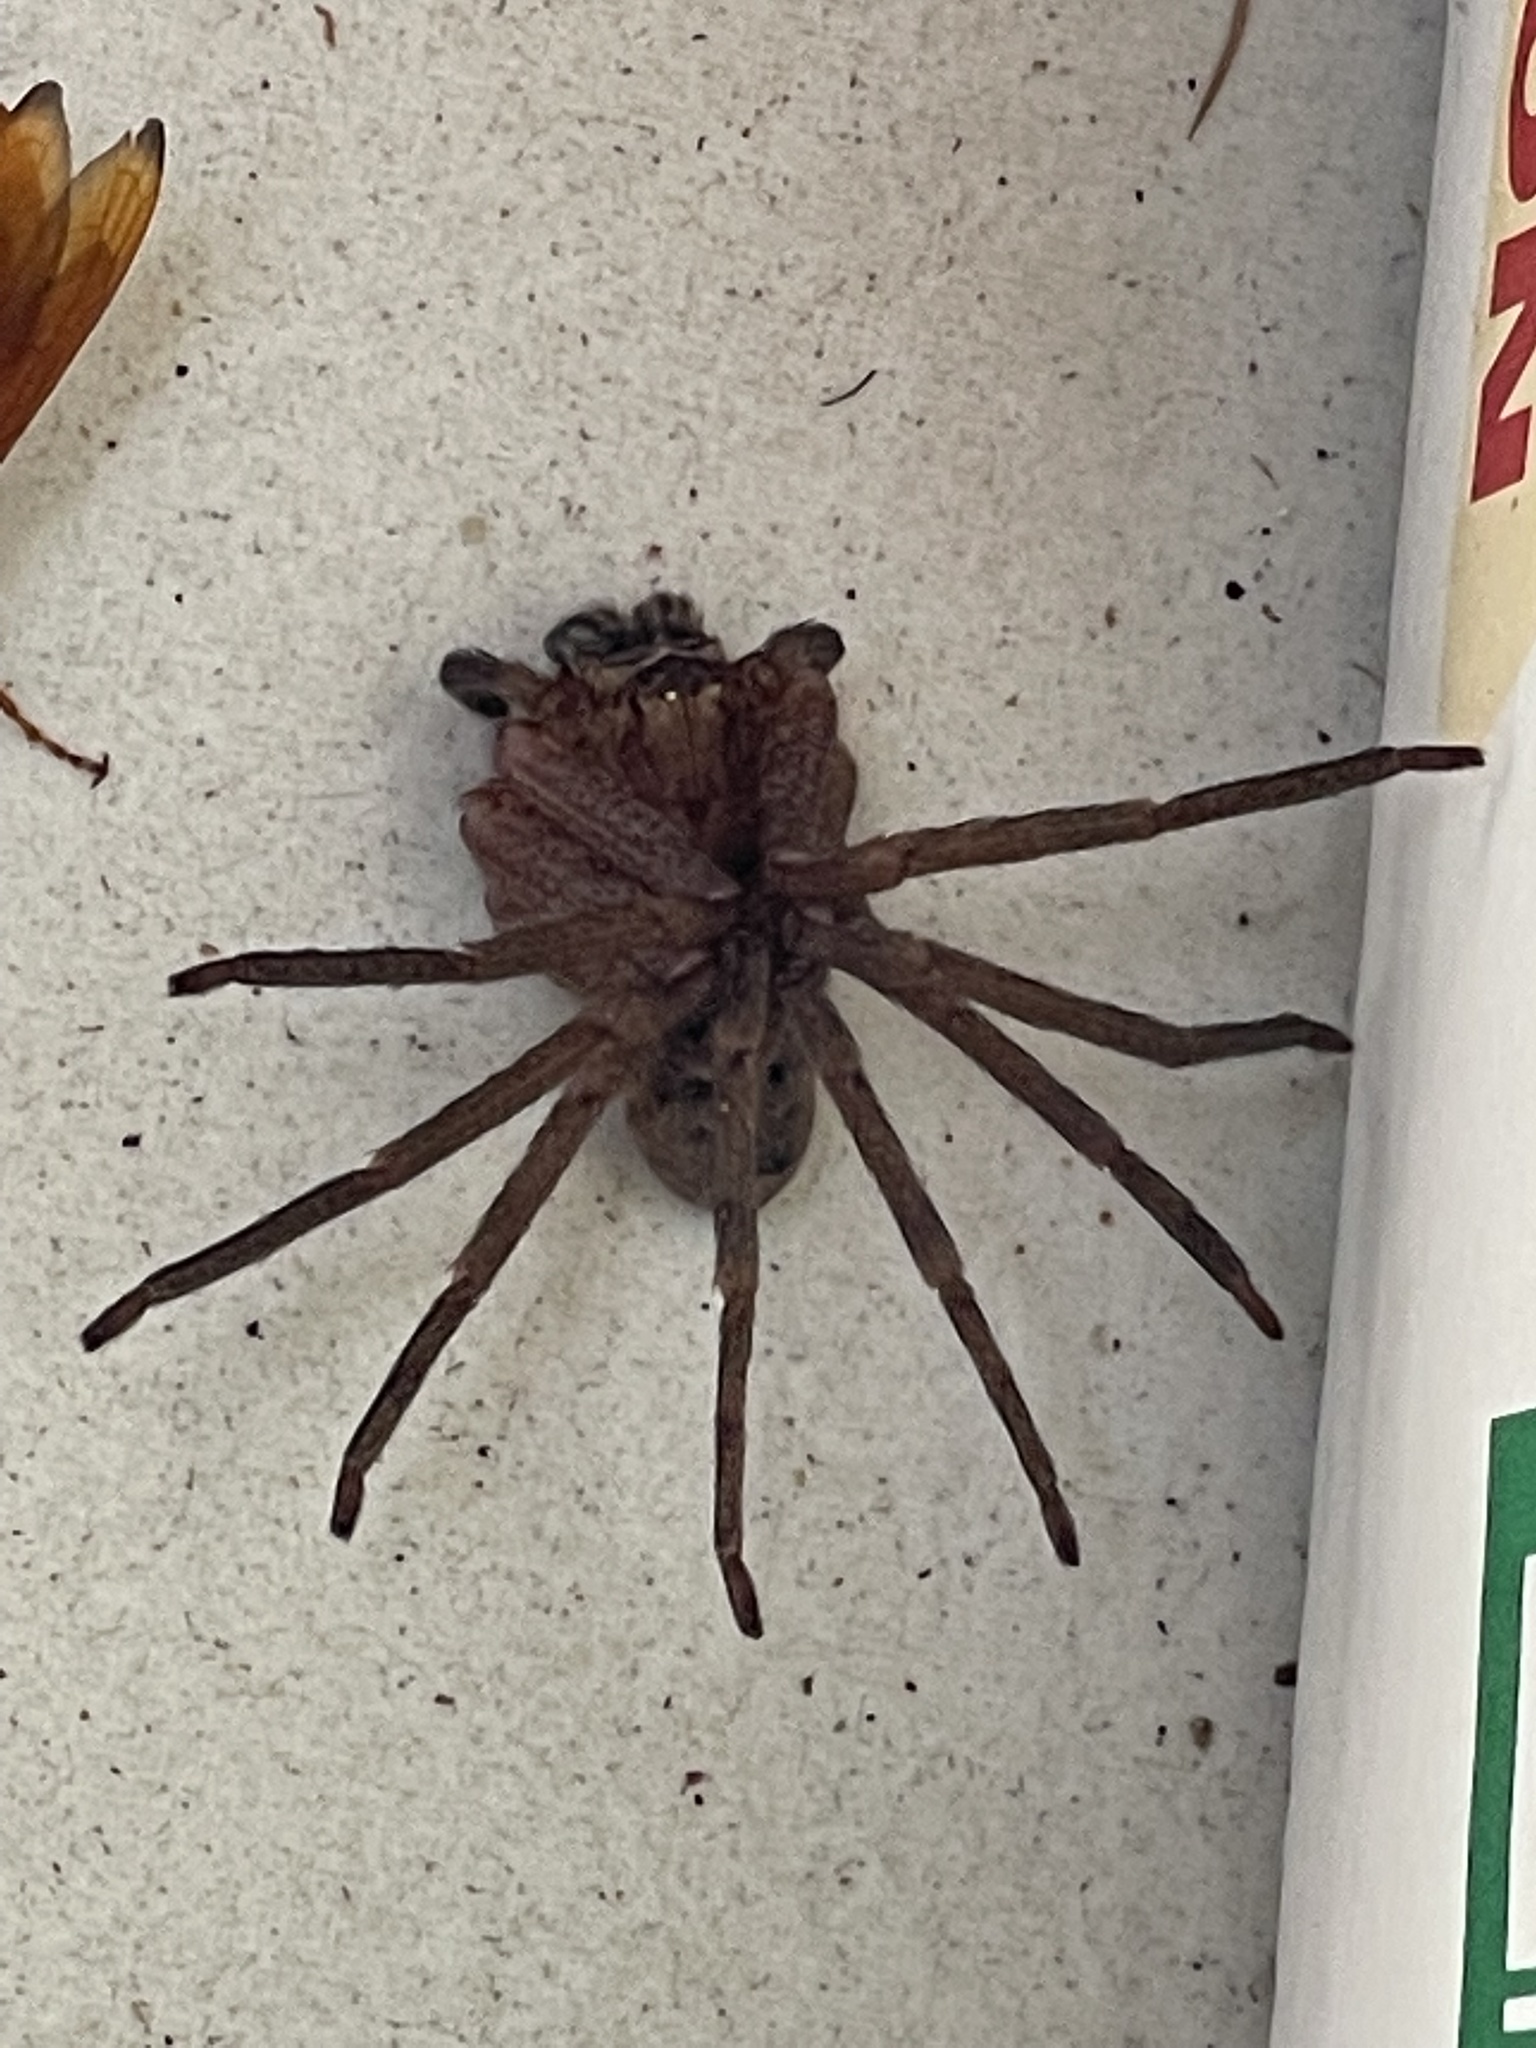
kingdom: Animalia
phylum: Arthropoda
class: Arachnida
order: Araneae
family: Sparassidae
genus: Heteropoda
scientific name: Heteropoda jugulans
